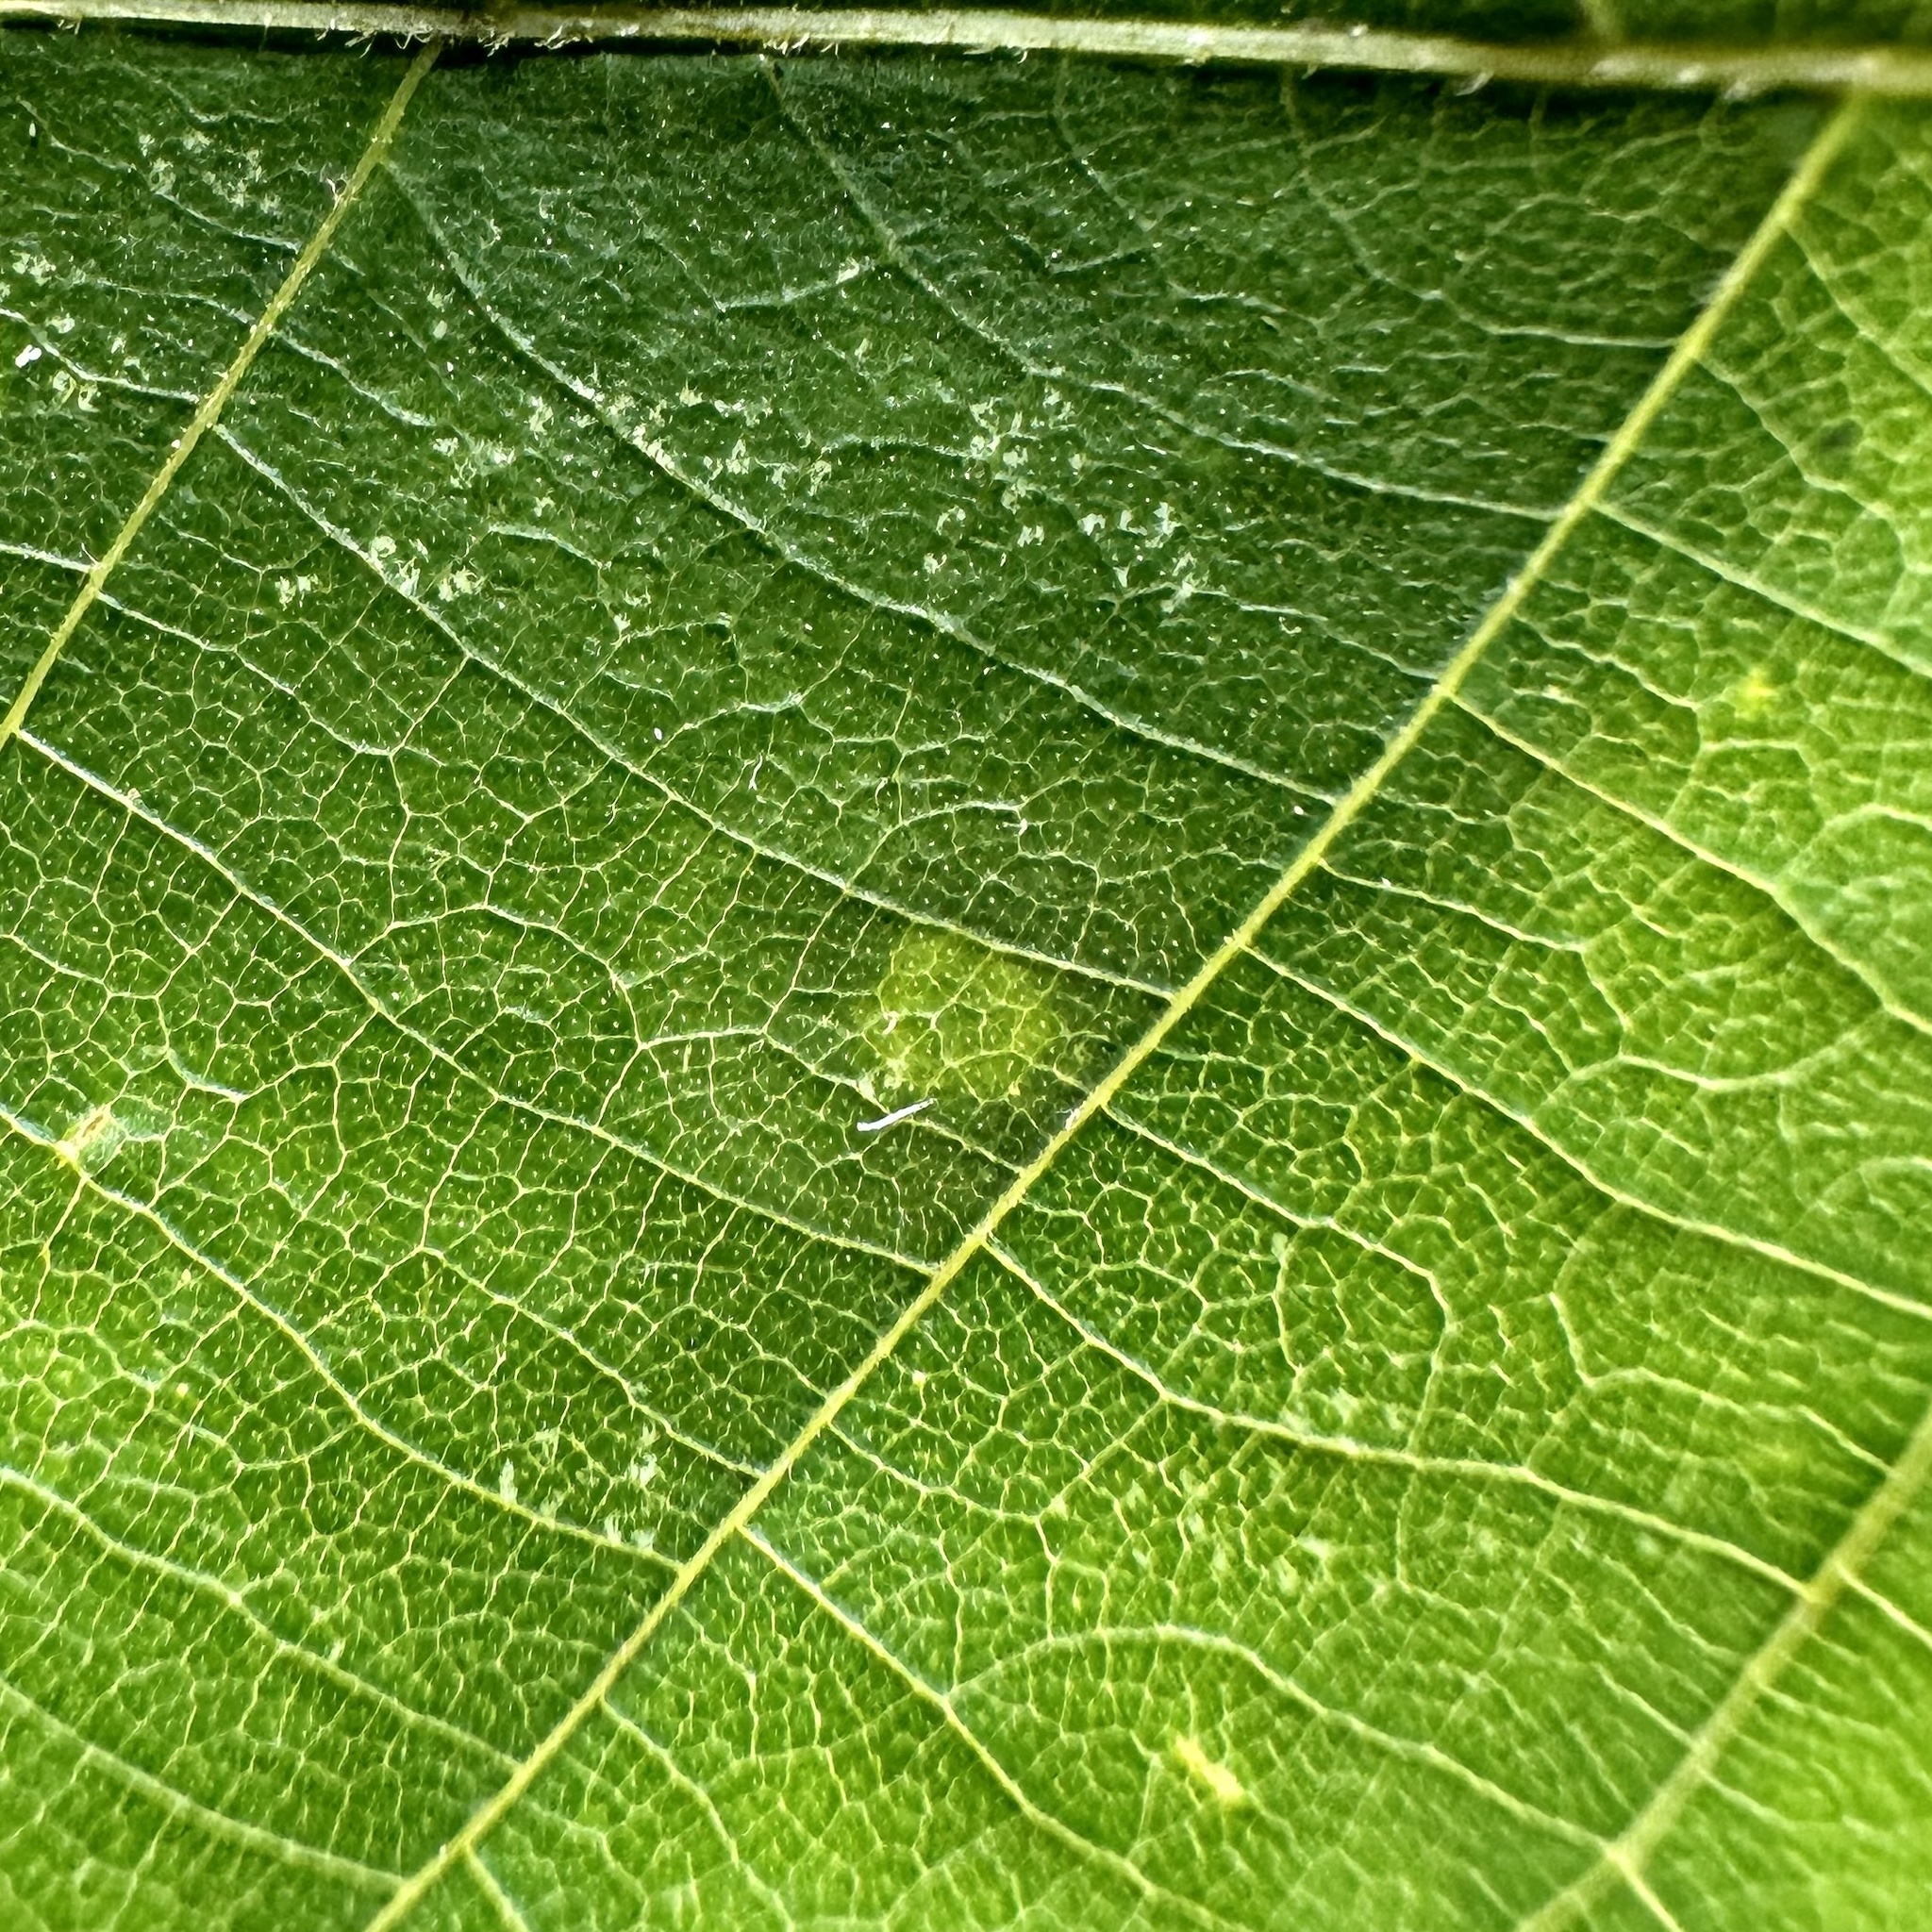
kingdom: Animalia
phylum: Arthropoda
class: Insecta
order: Diptera
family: Cecidomyiidae
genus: Gliaspilota
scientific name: Gliaspilota glutinosa
